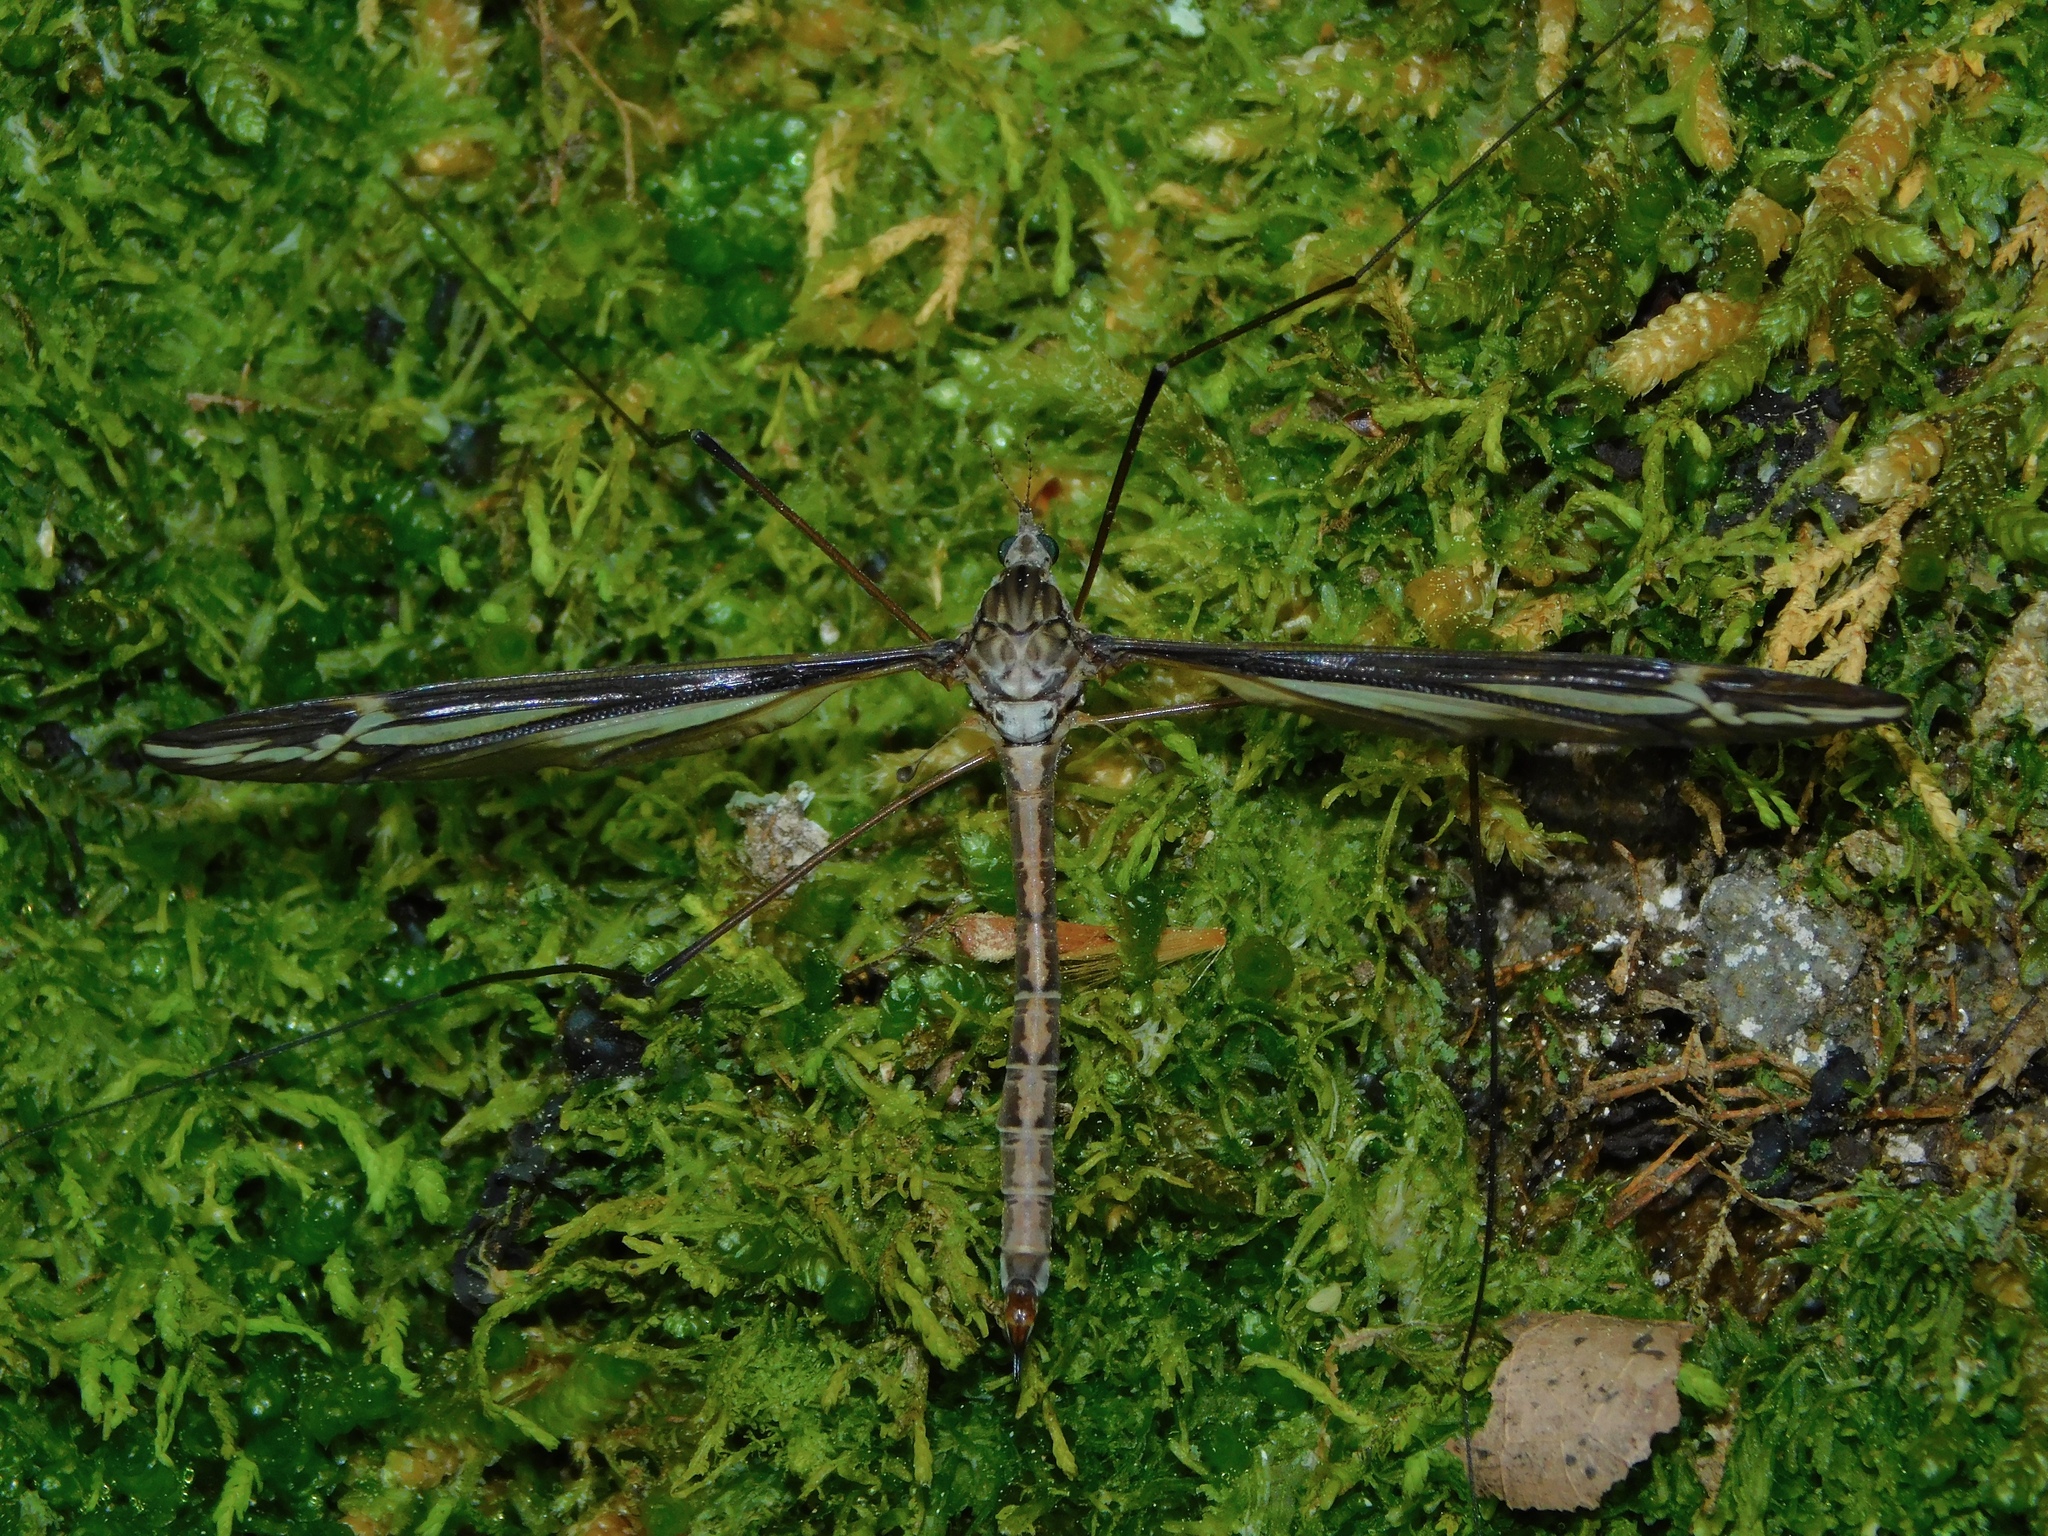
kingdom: Animalia
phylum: Arthropoda
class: Insecta
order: Diptera
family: Tipulidae
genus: Tipula
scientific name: Tipula furca
